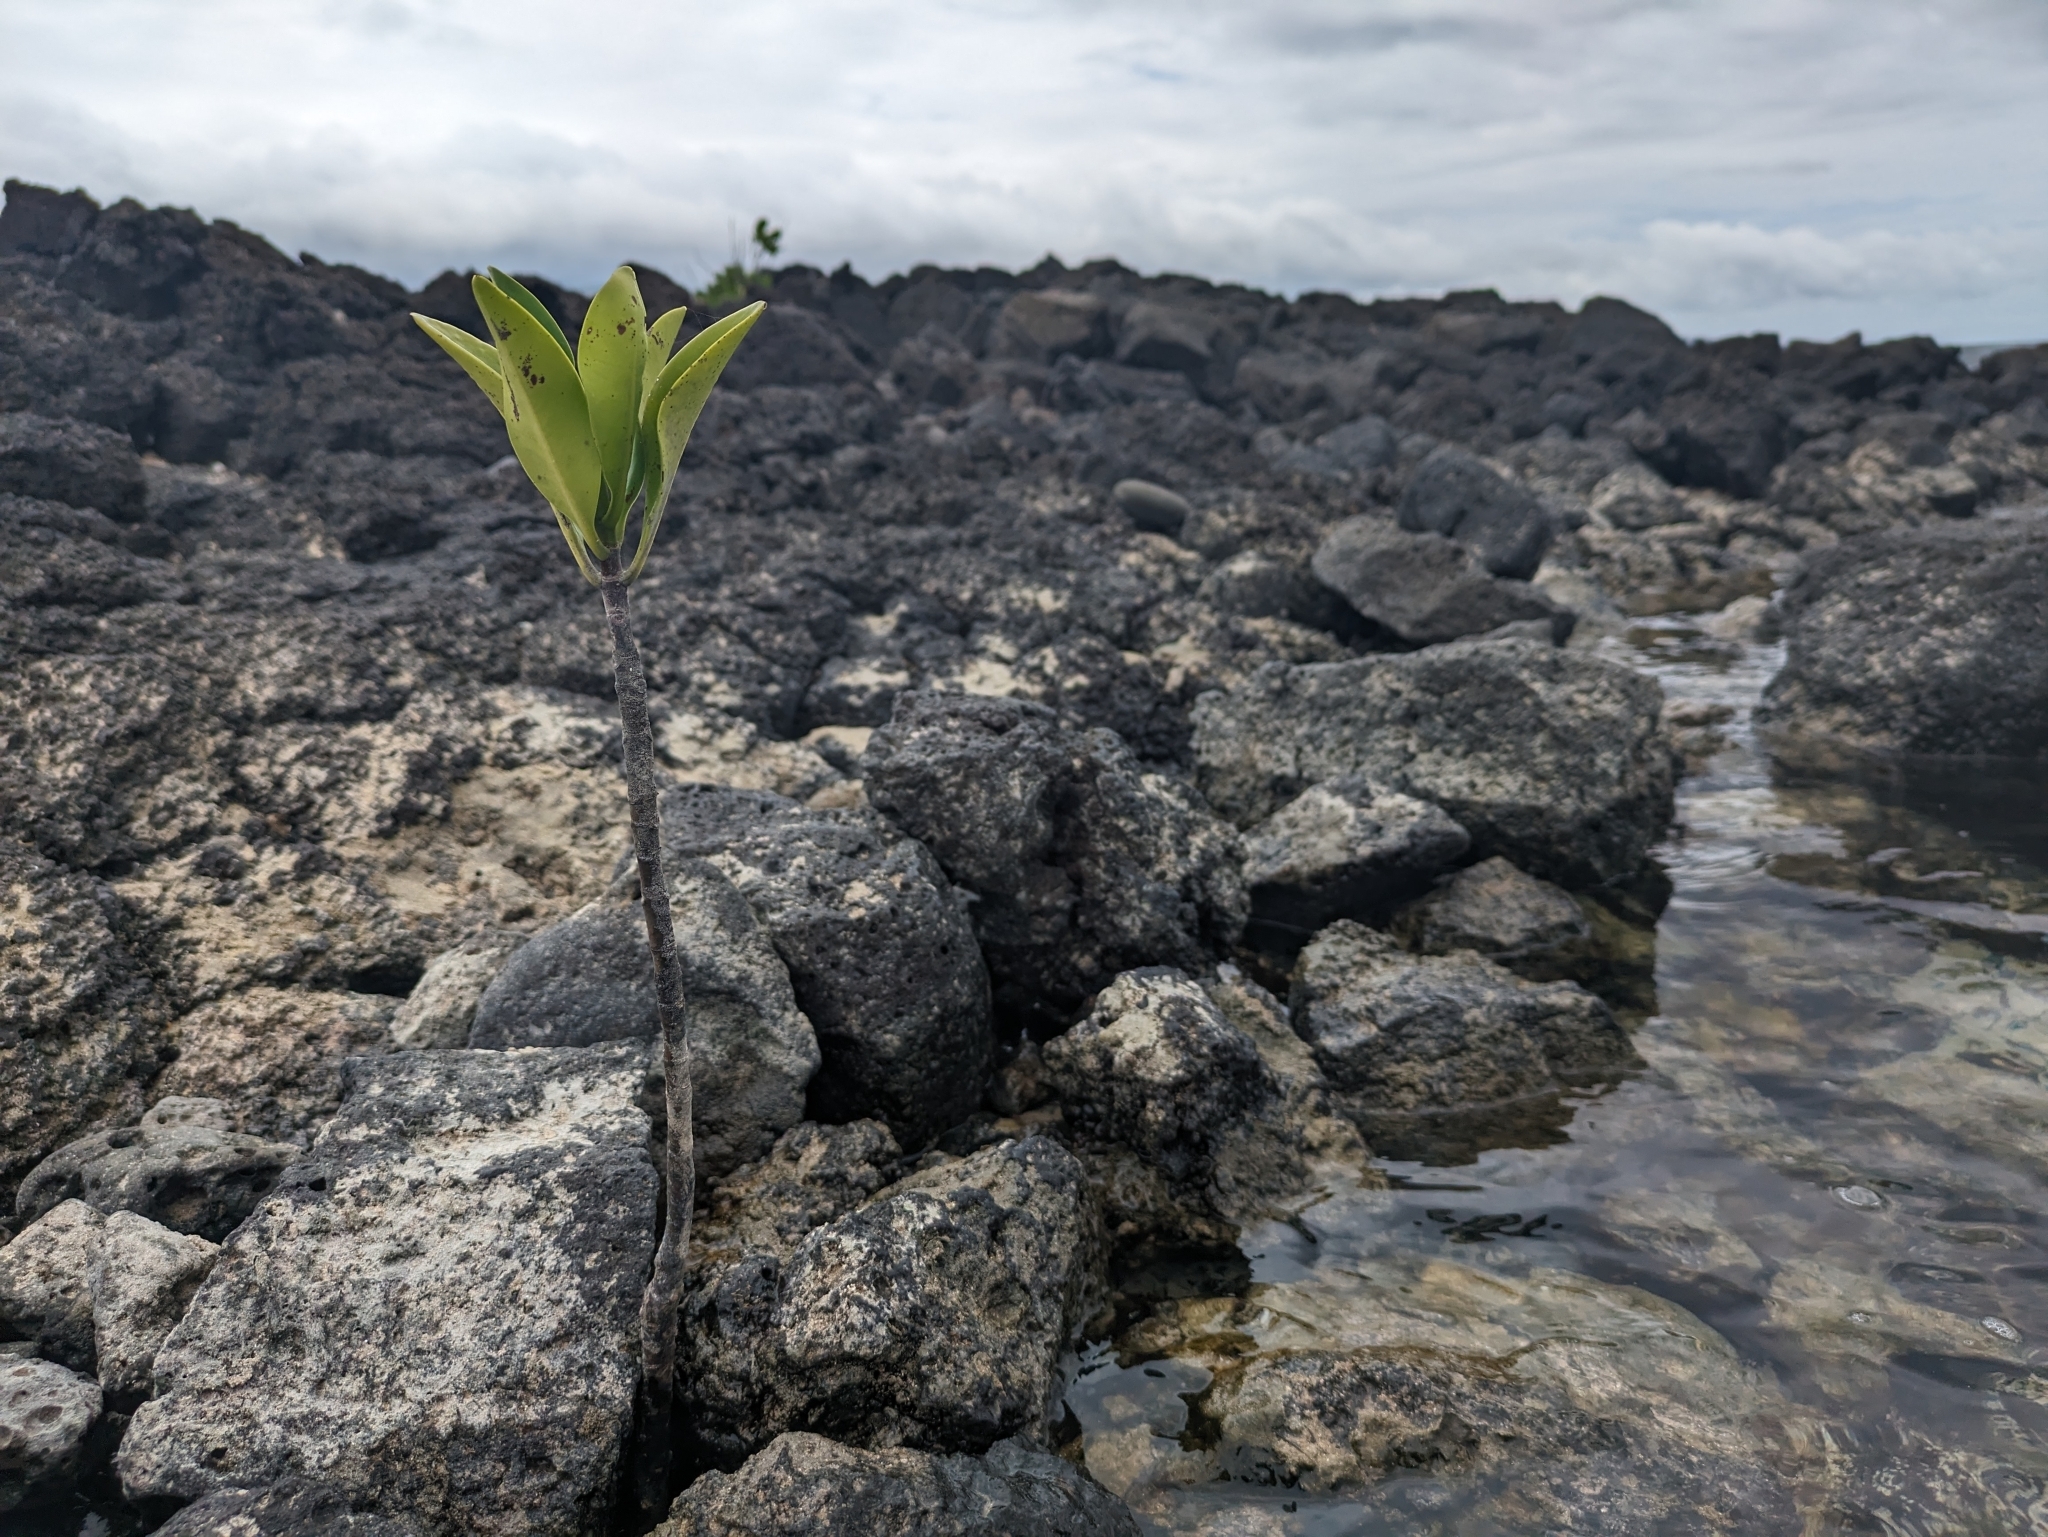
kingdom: Plantae
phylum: Tracheophyta
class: Magnoliopsida
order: Myrtales
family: Combretaceae
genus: Laguncularia
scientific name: Laguncularia racemosa
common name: White mangrove
